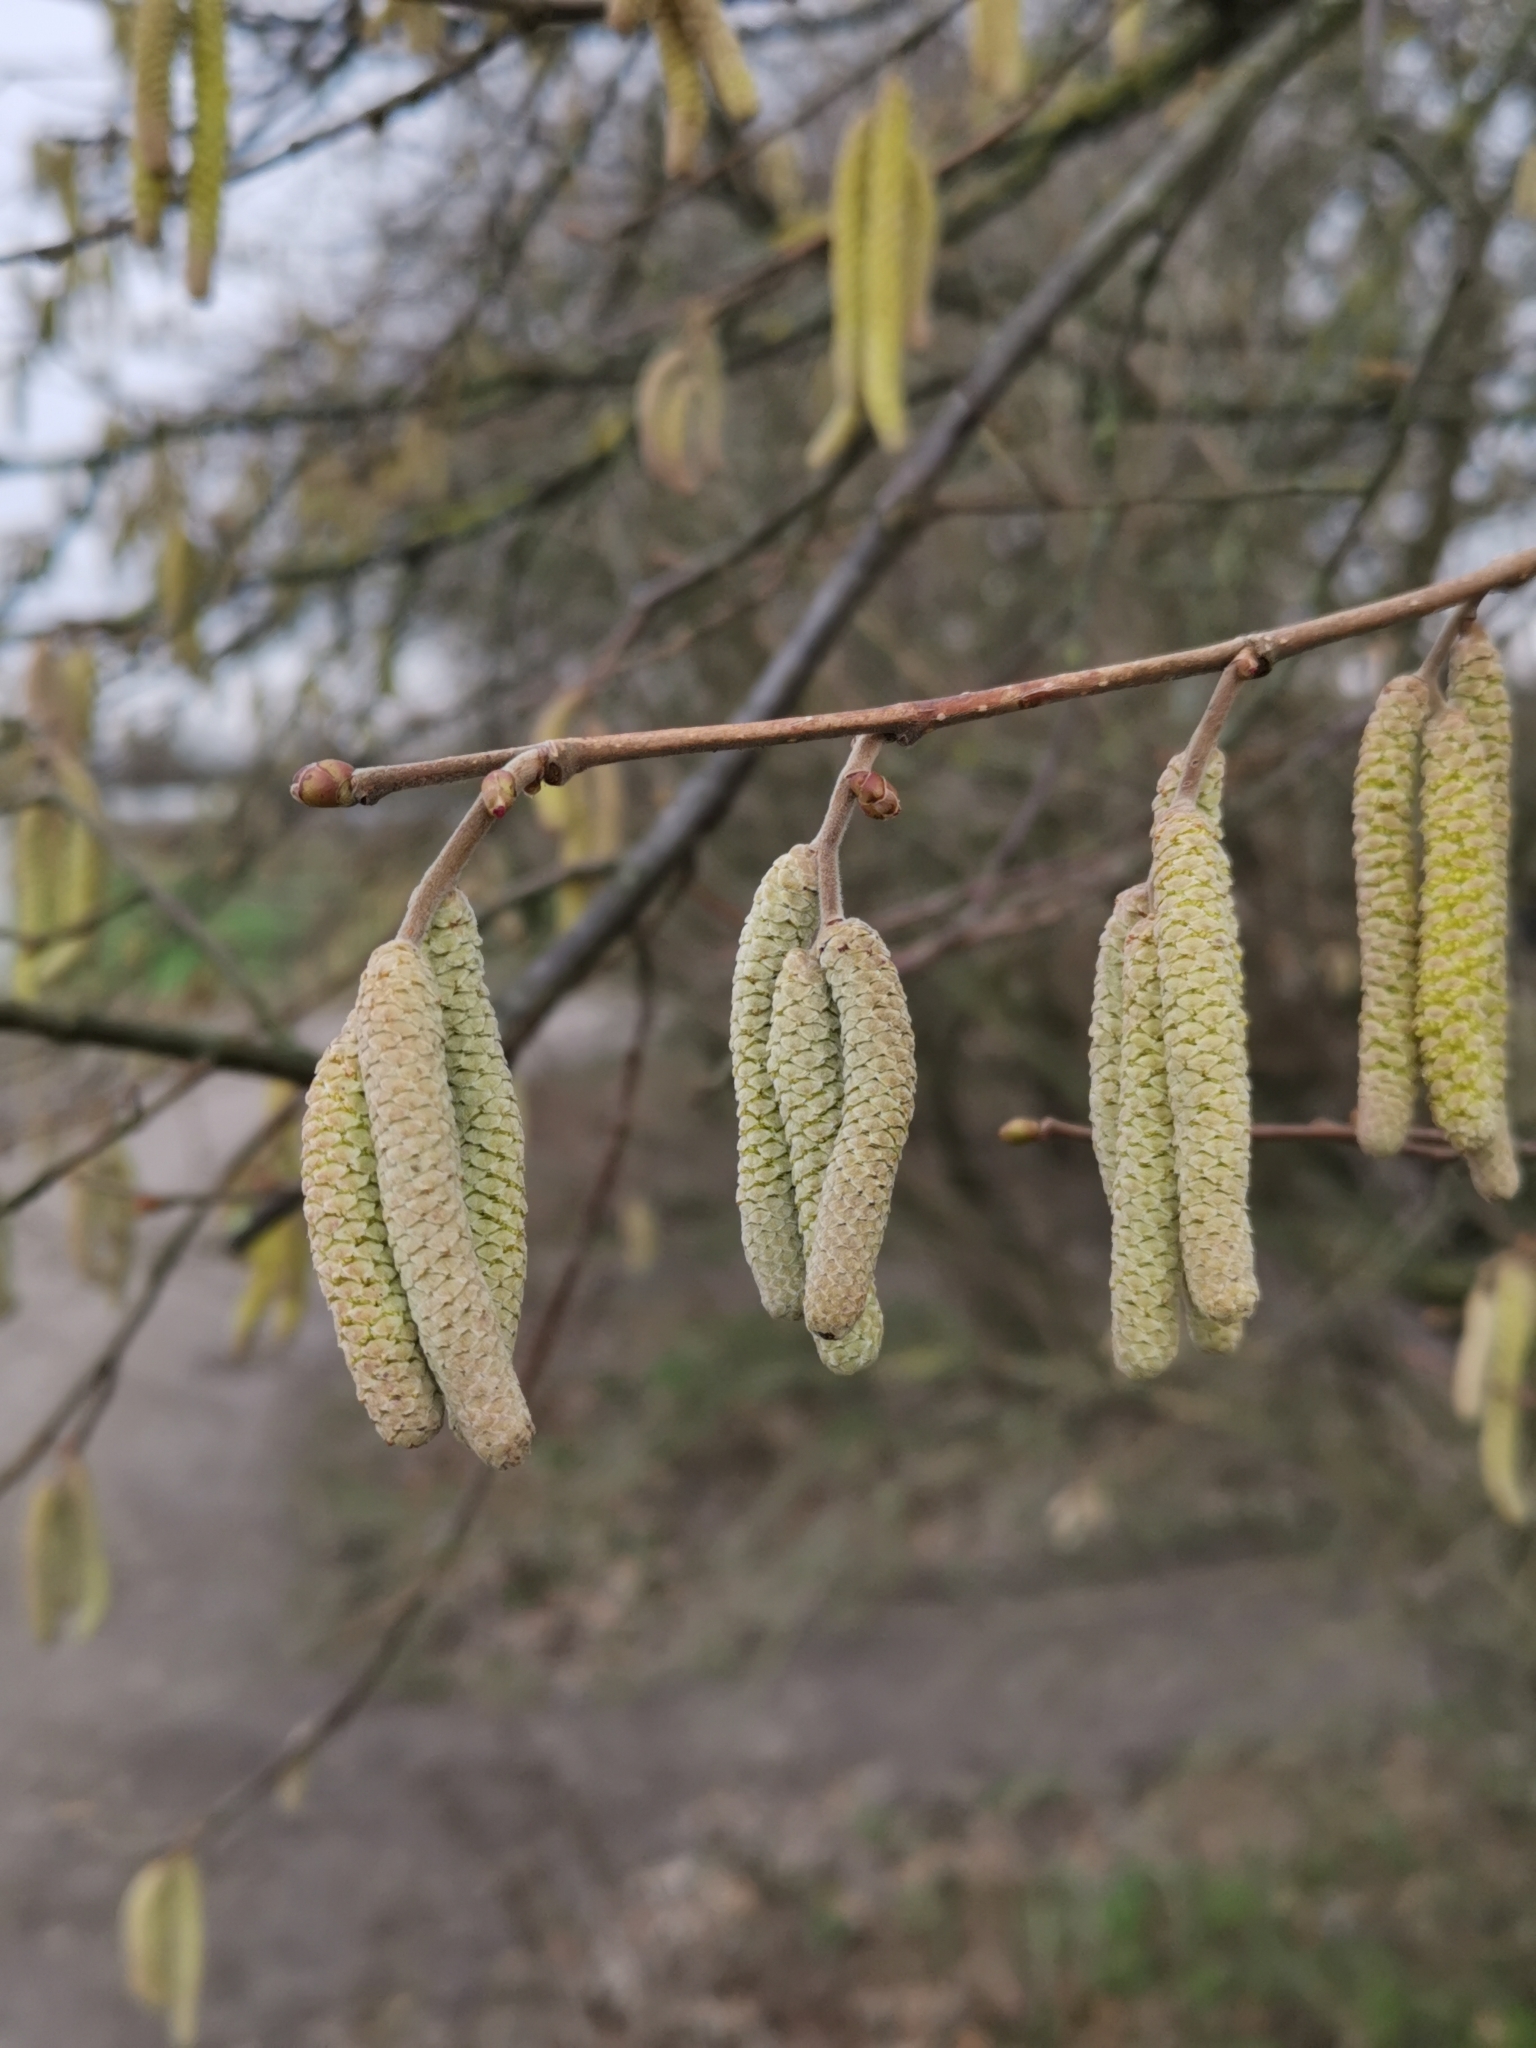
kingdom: Plantae
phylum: Tracheophyta
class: Magnoliopsida
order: Fagales
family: Betulaceae
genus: Corylus
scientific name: Corylus avellana
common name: European hazel
